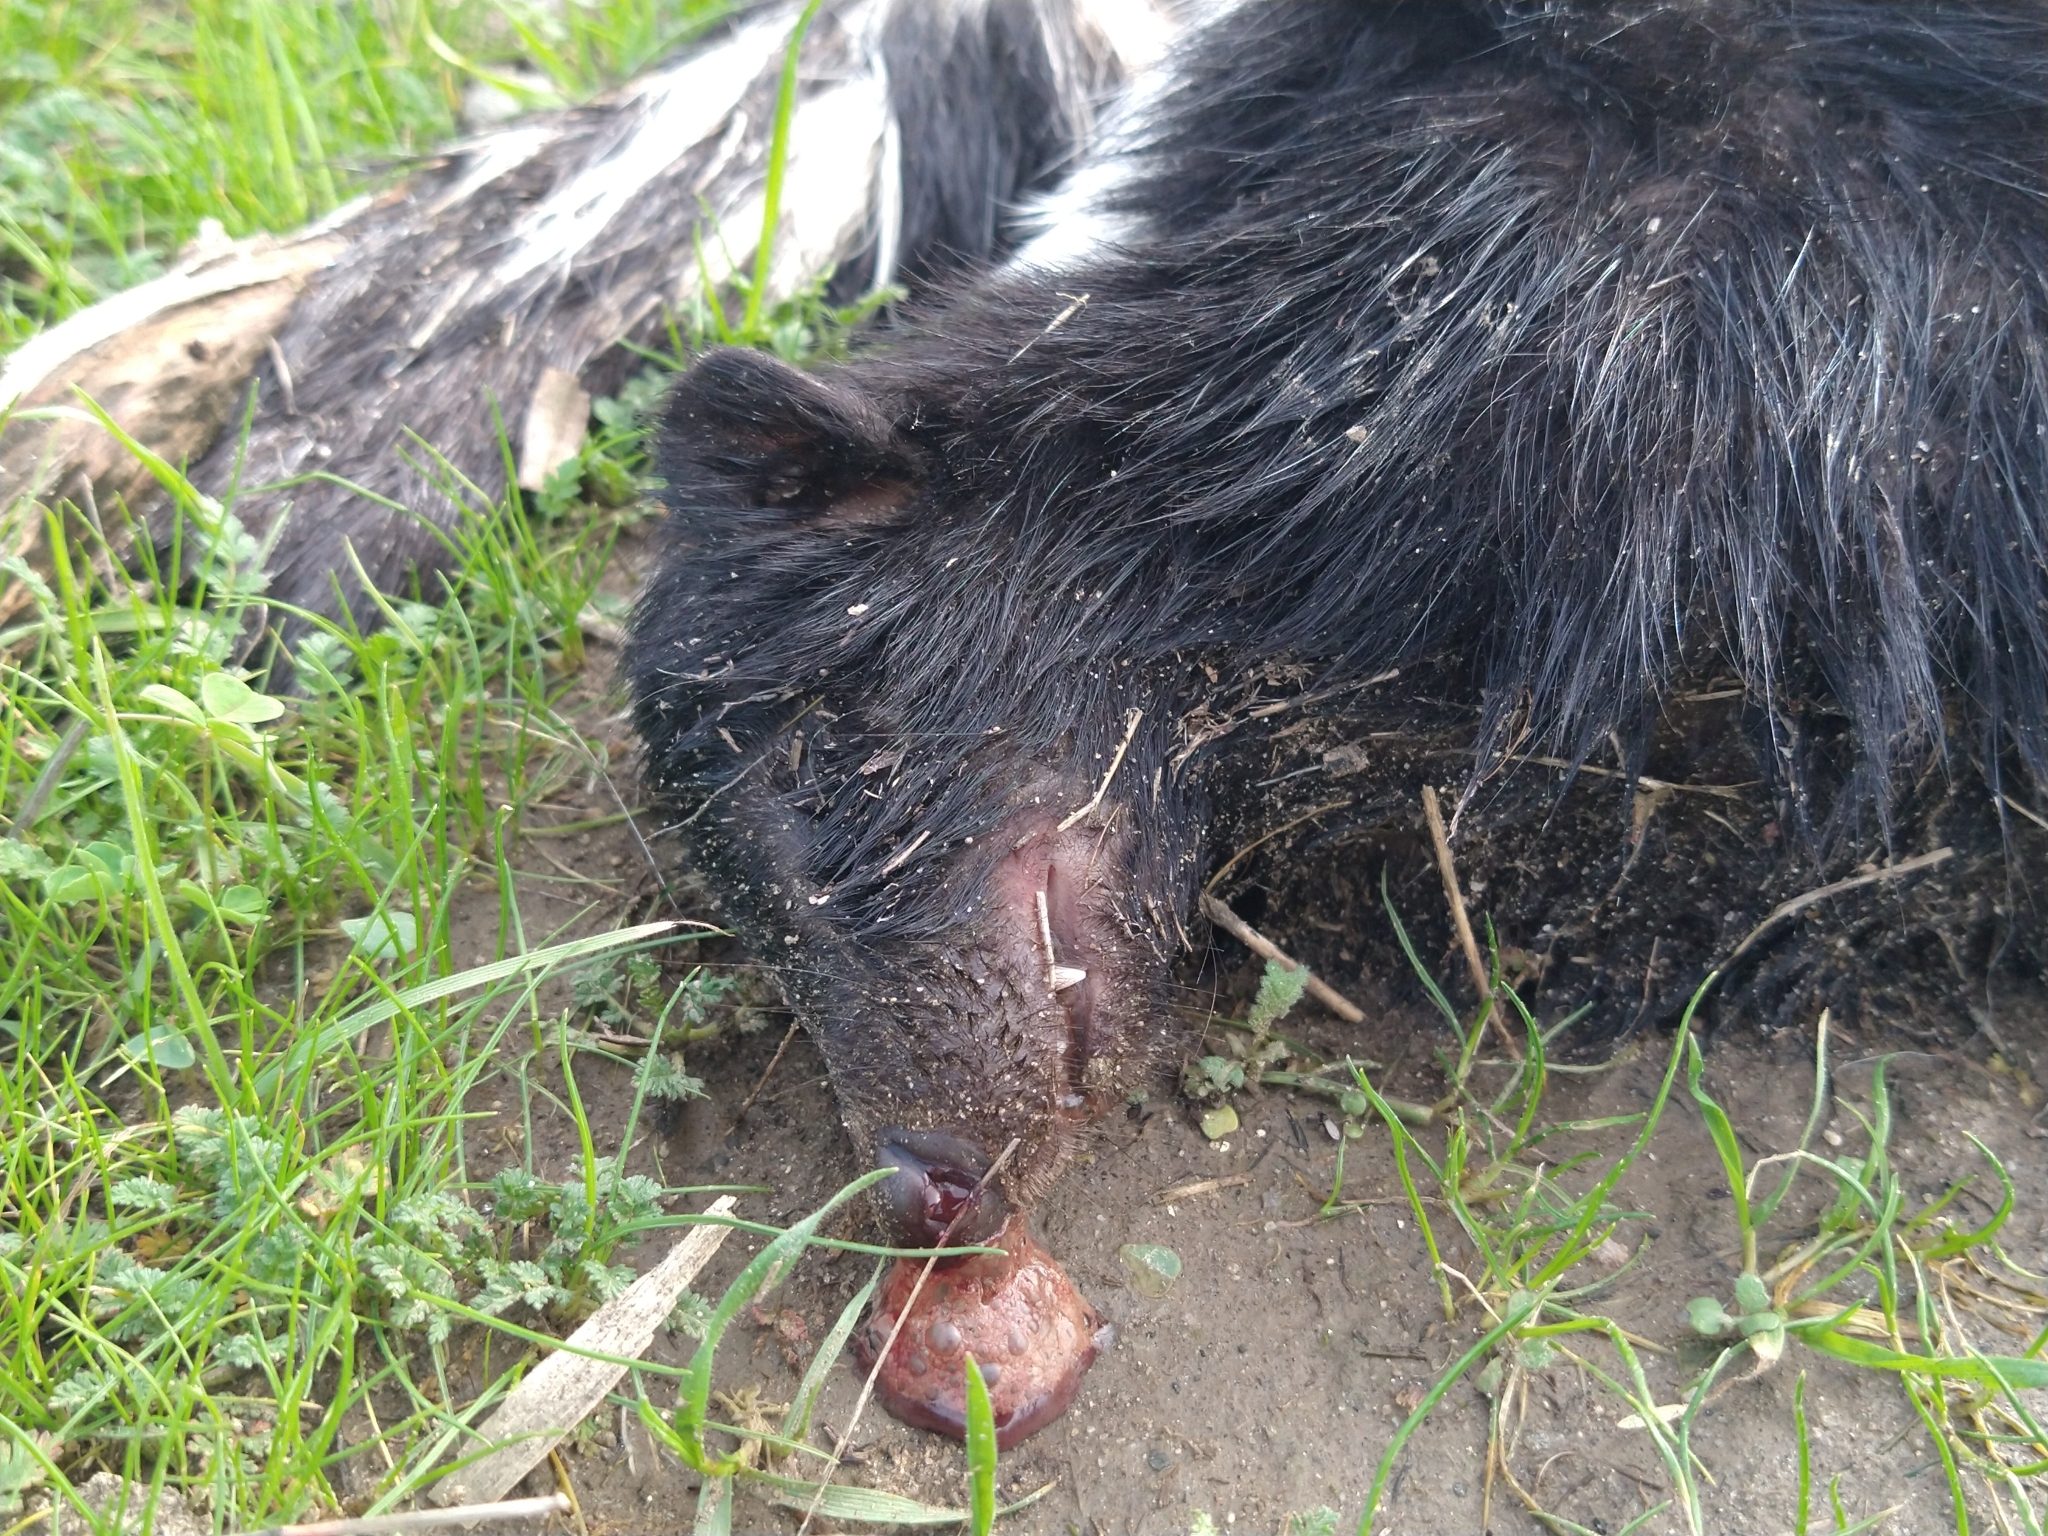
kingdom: Animalia
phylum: Chordata
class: Mammalia
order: Carnivora
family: Mephitidae
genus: Mephitis
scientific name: Mephitis mephitis
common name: Striped skunk
